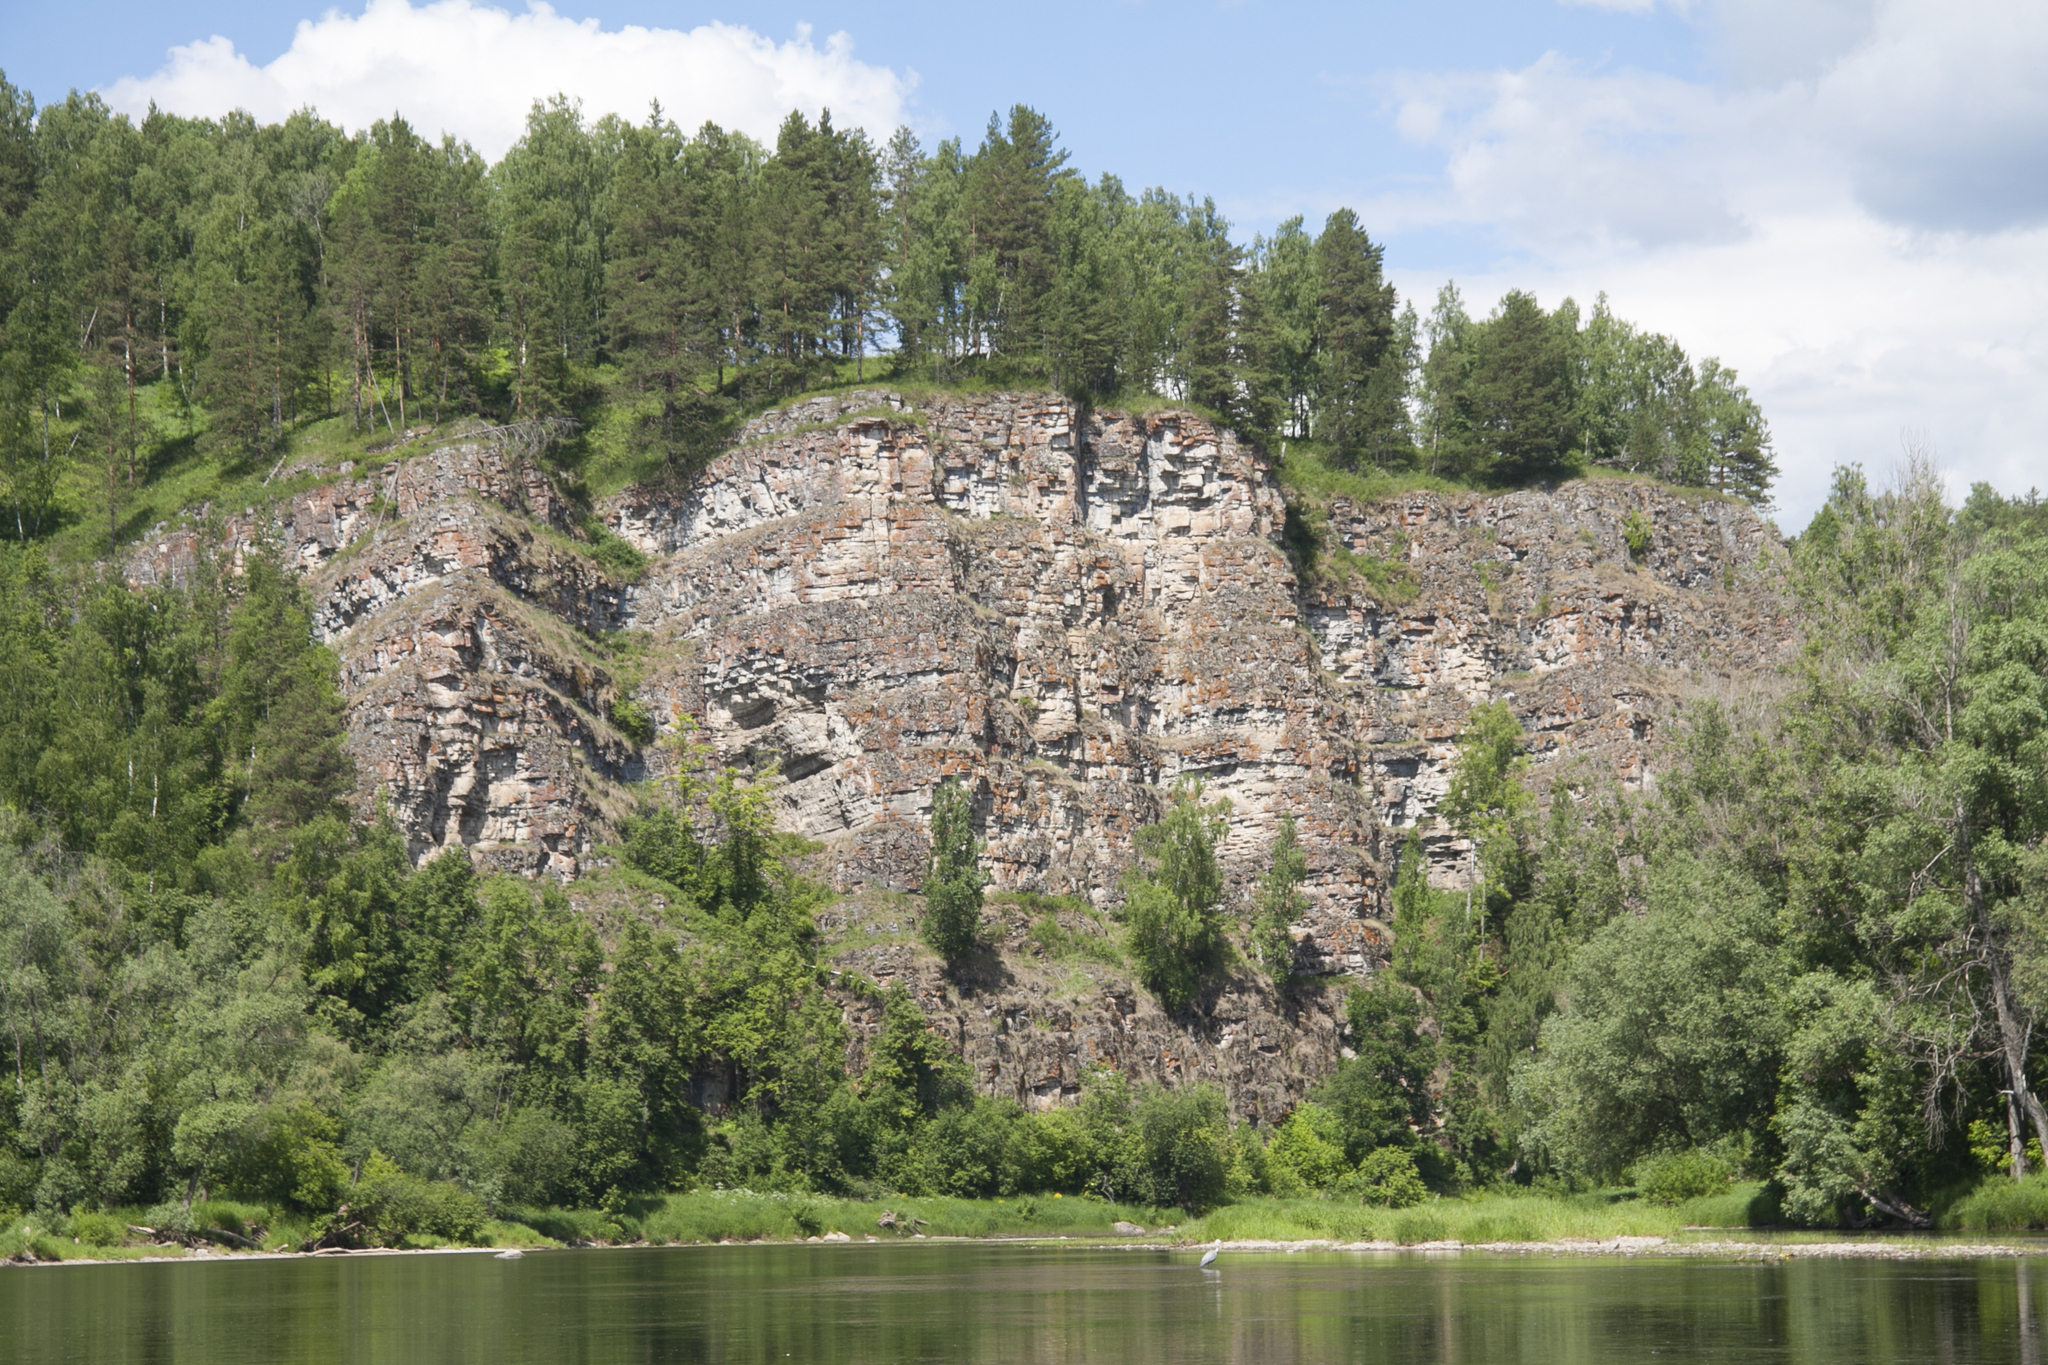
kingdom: Animalia
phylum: Chordata
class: Aves
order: Pelecaniformes
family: Ardeidae
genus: Ardea
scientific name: Ardea cinerea
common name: Grey heron
